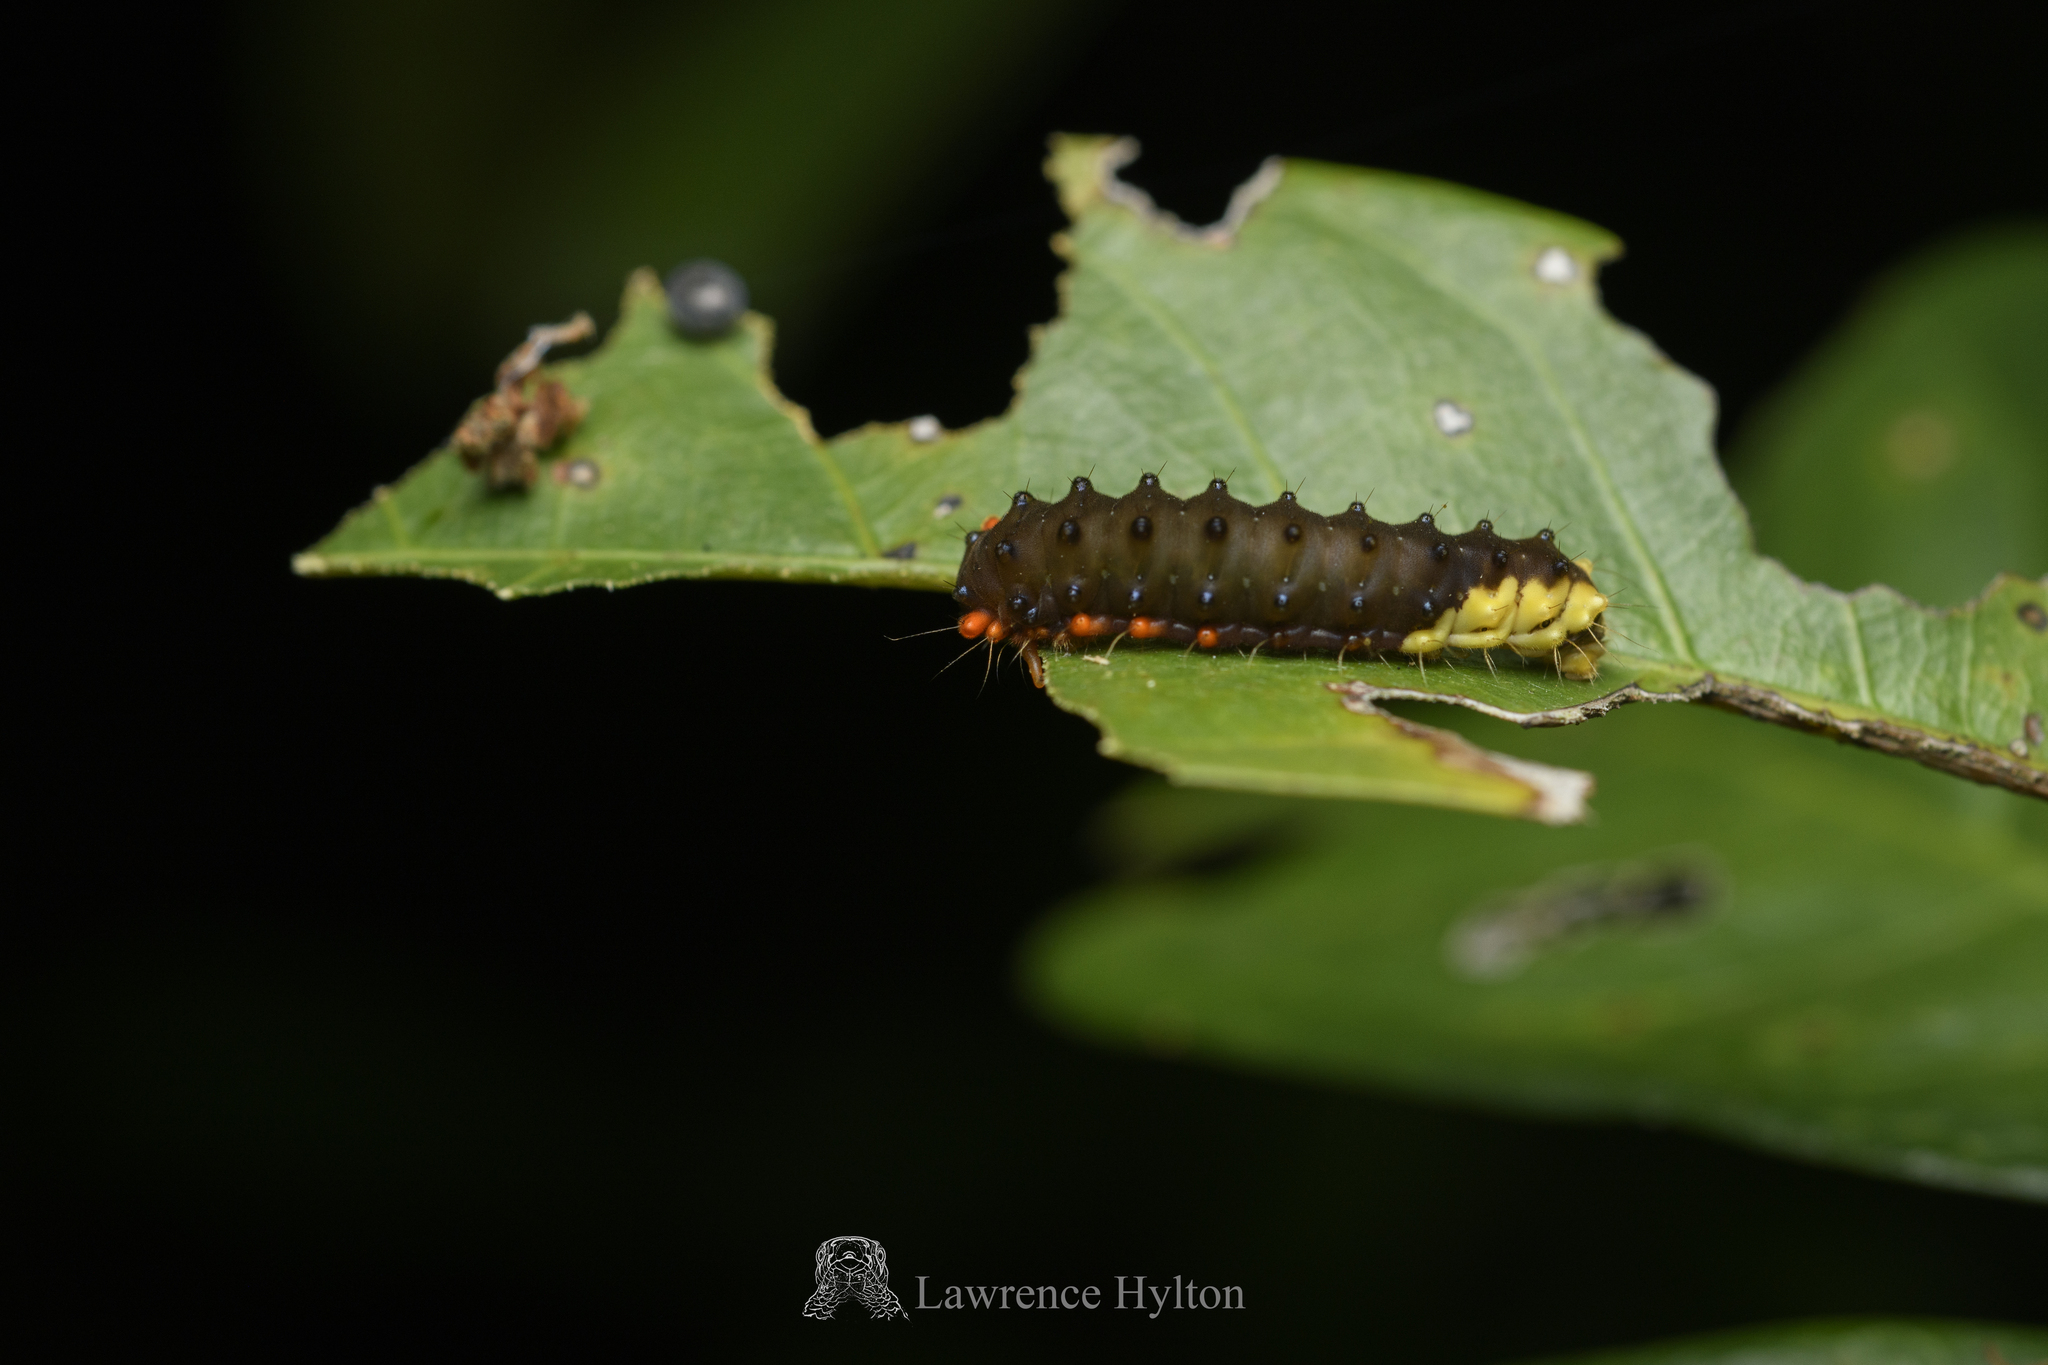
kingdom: Animalia
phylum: Arthropoda
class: Insecta
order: Lepidoptera
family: Zygaenidae
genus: Trypanophora
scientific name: Trypanophora semihyalina
